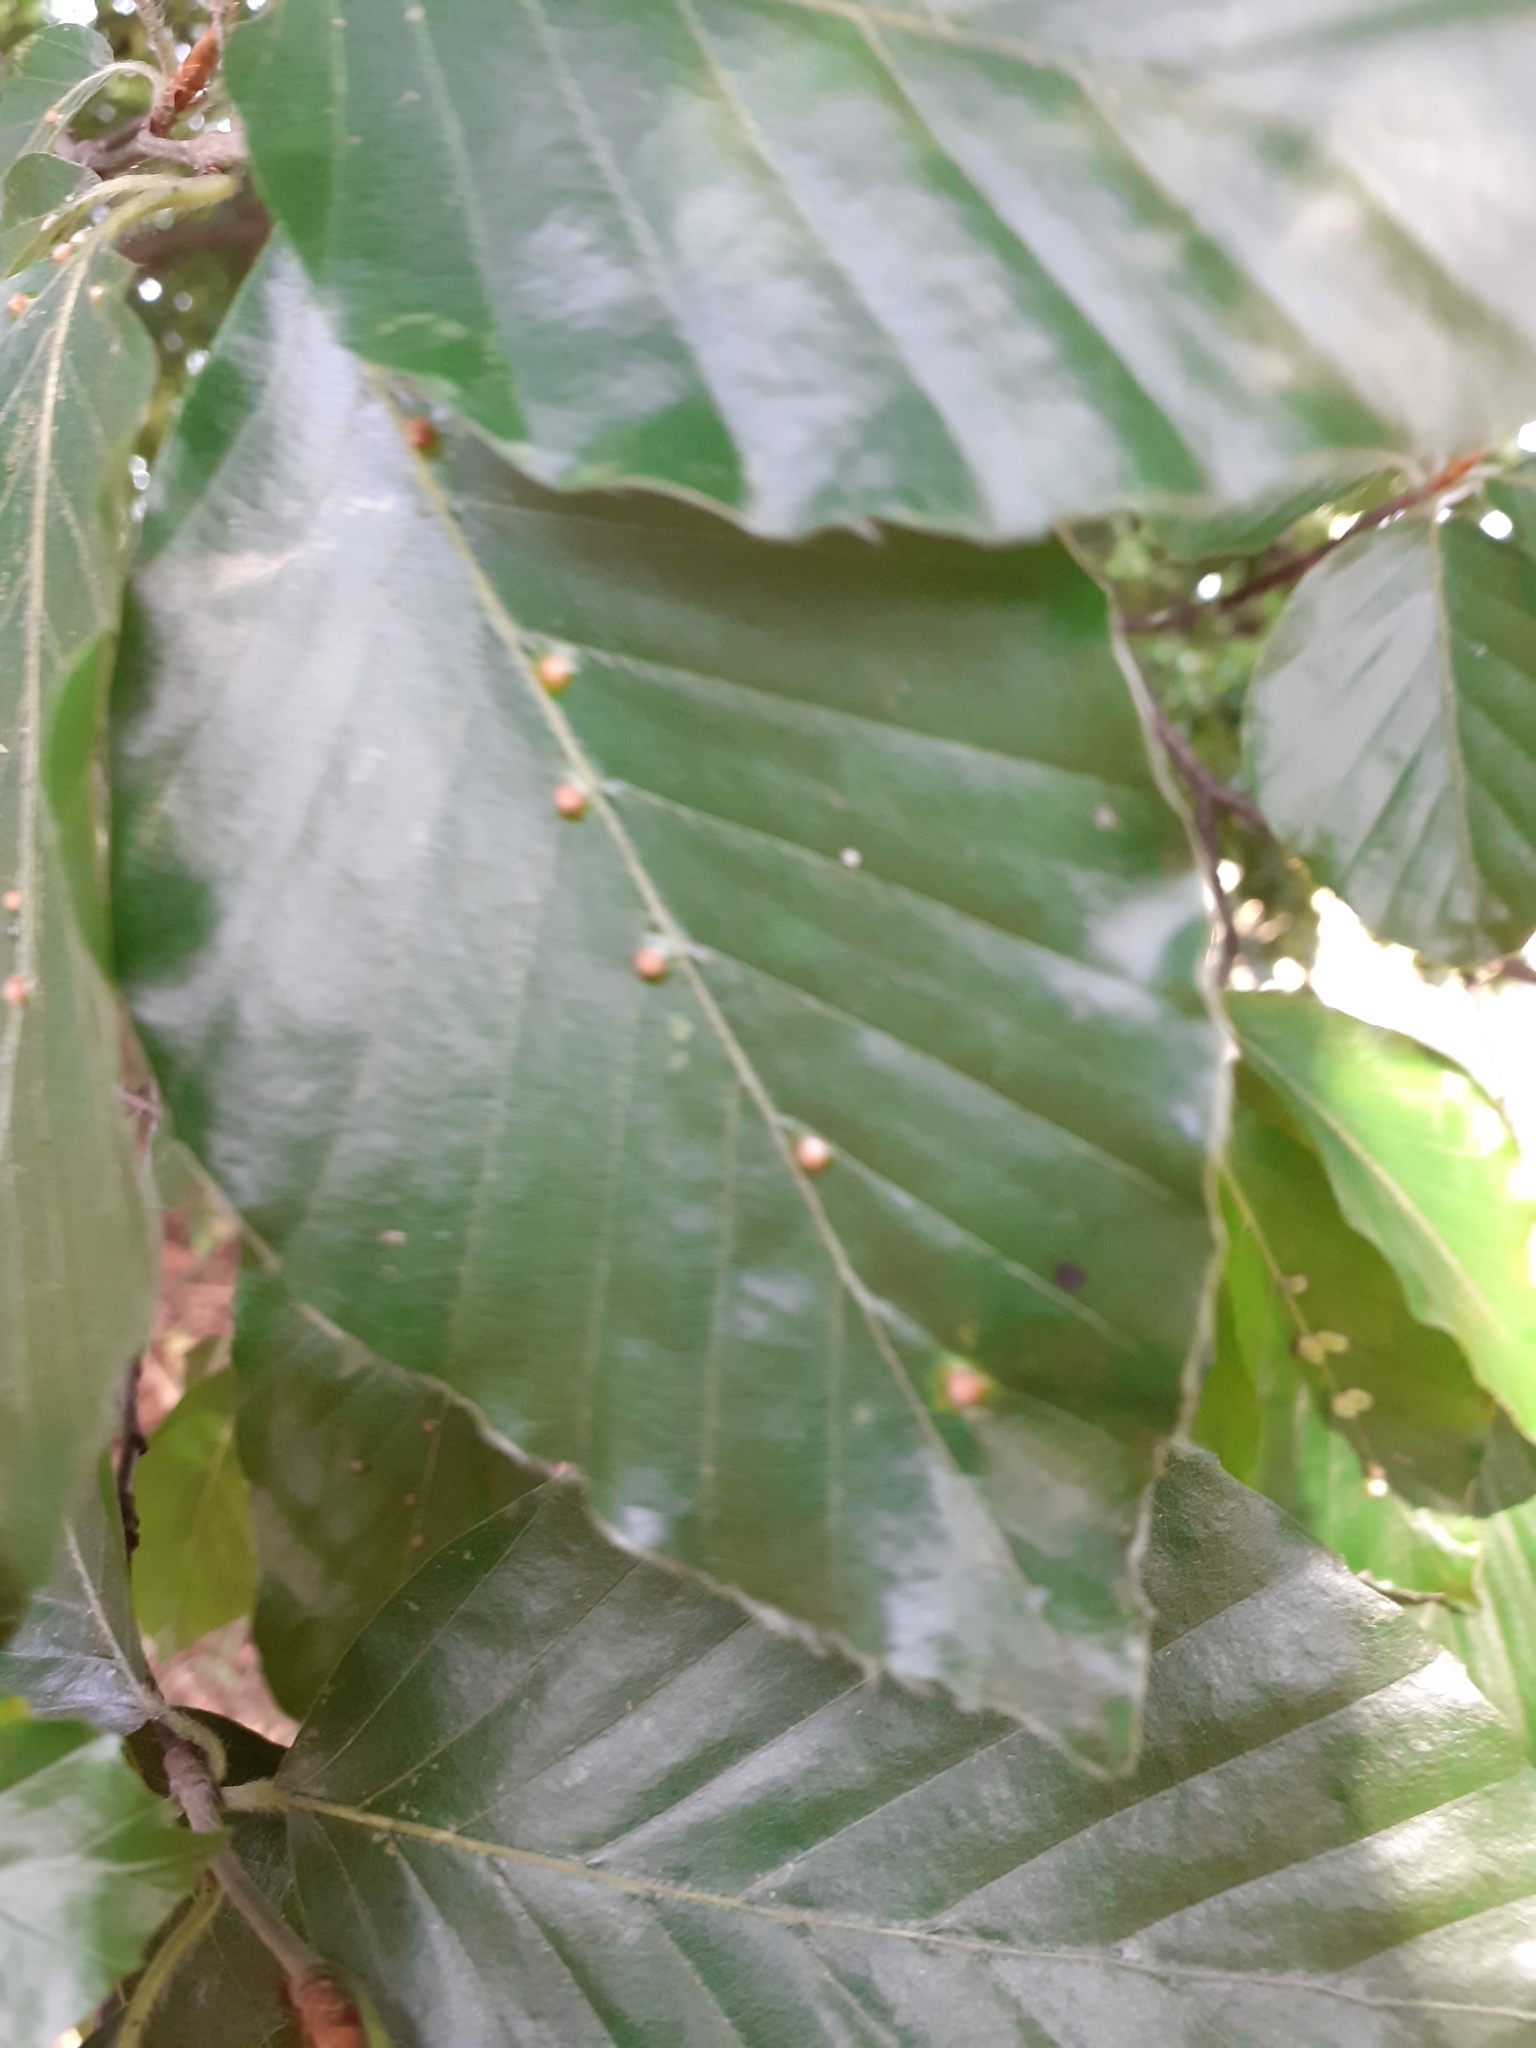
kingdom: Animalia
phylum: Arthropoda
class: Insecta
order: Diptera
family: Cecidomyiidae
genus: Hartigiola
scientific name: Hartigiola annulipes
